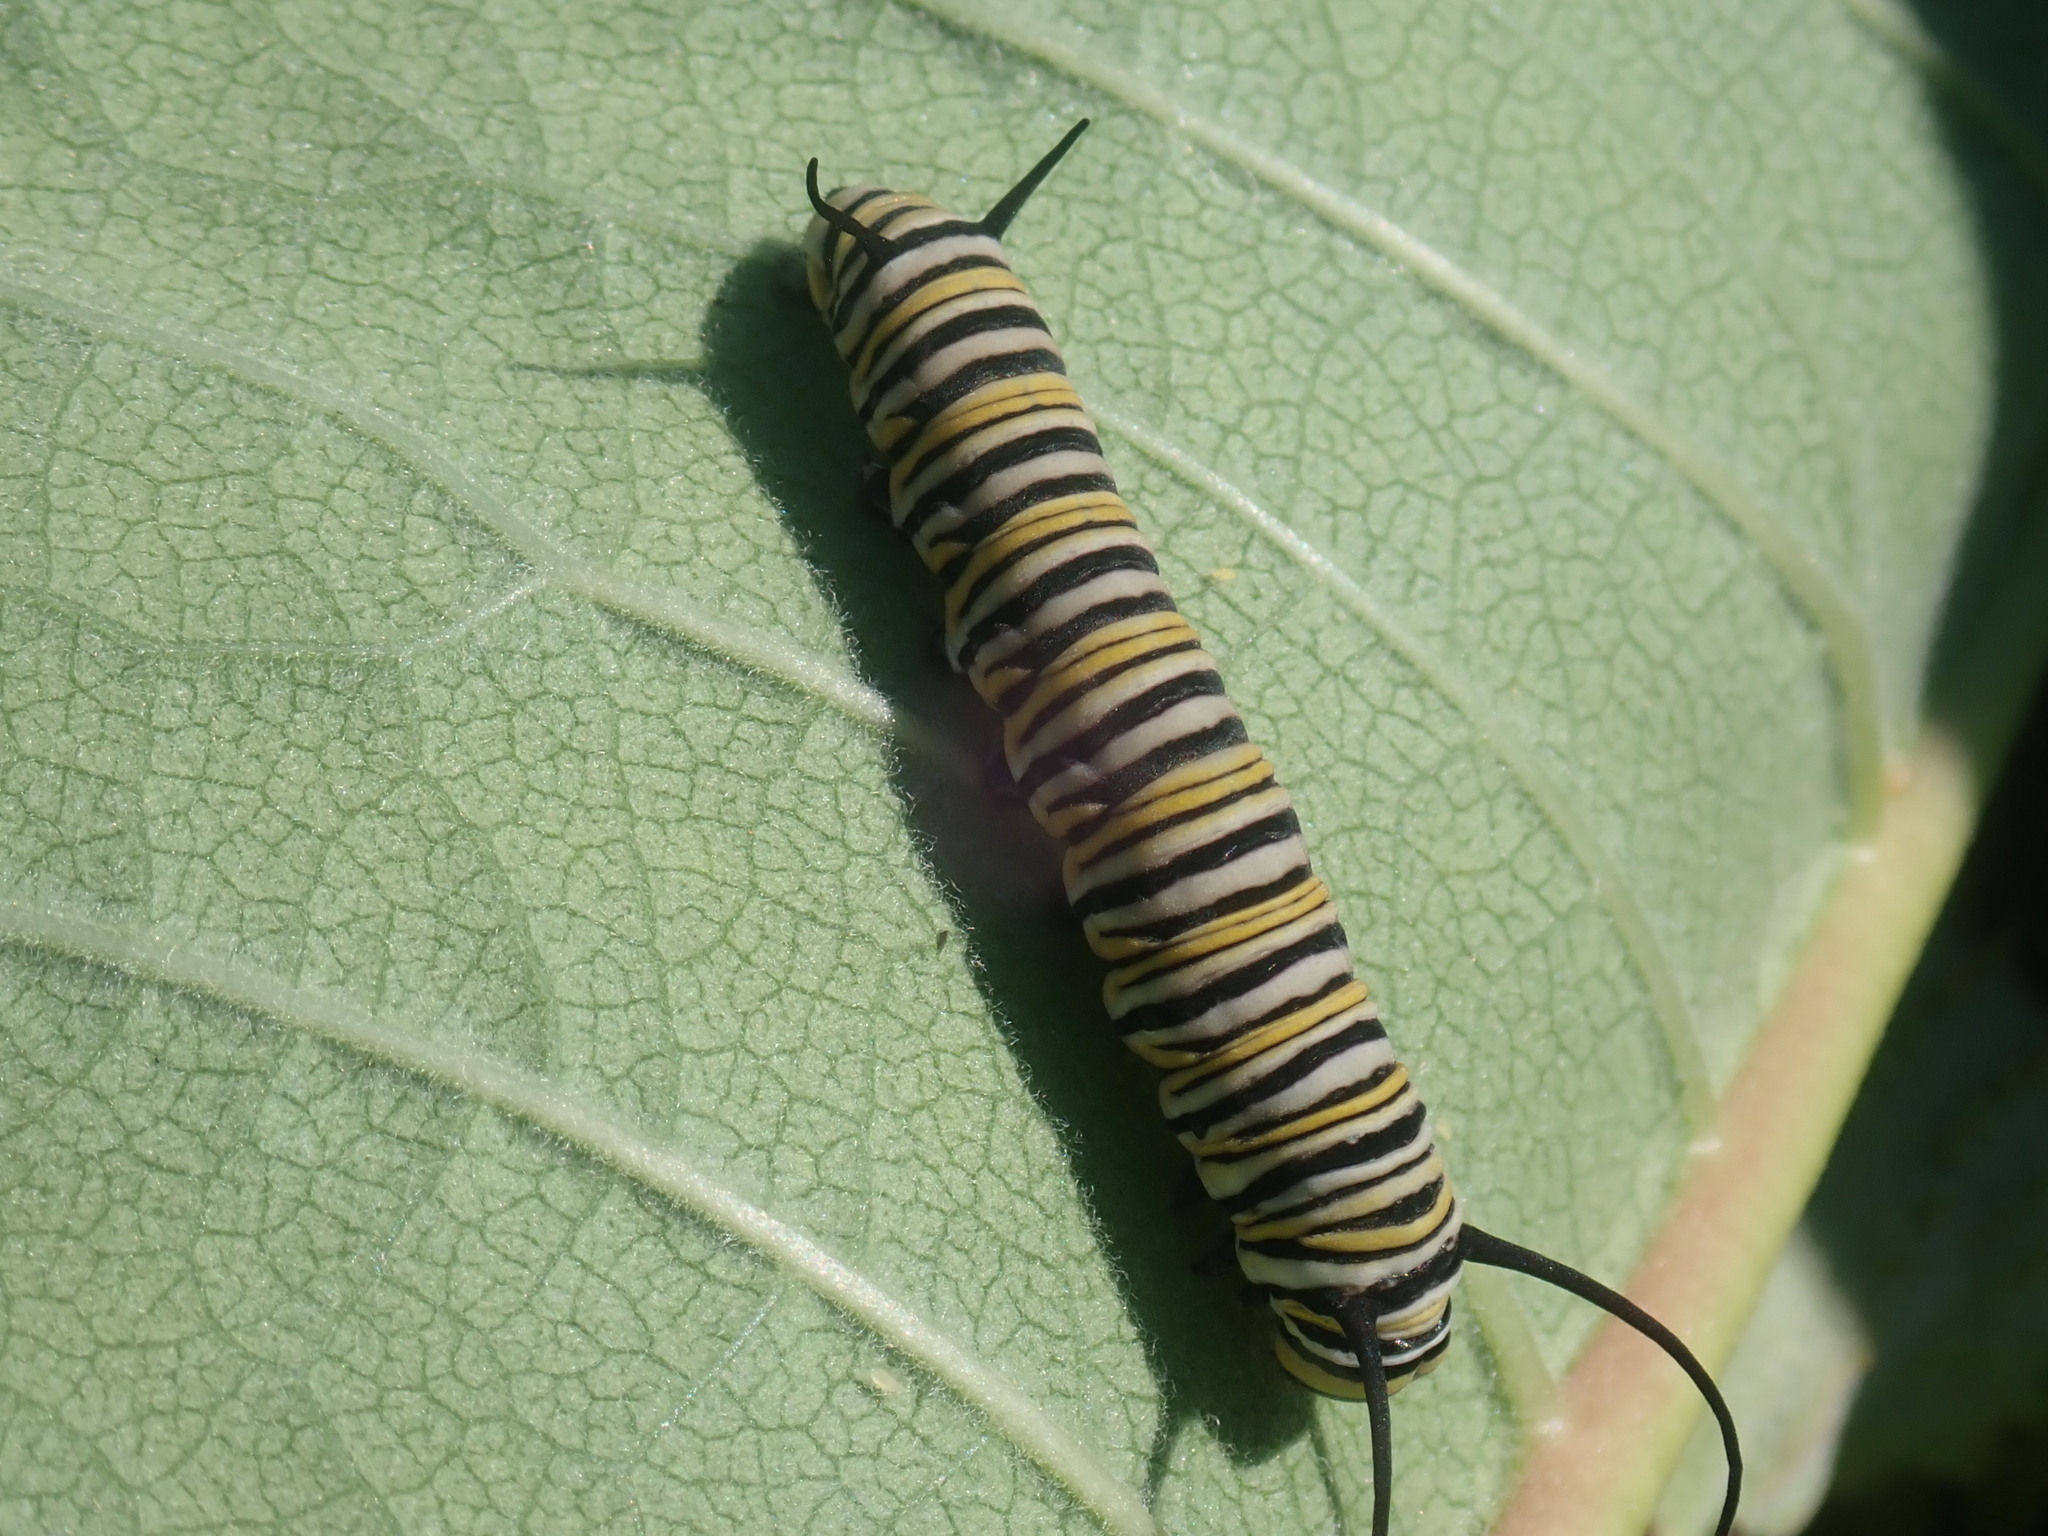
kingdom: Animalia
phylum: Arthropoda
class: Insecta
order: Lepidoptera
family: Nymphalidae
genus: Danaus
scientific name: Danaus plexippus
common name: Monarch
